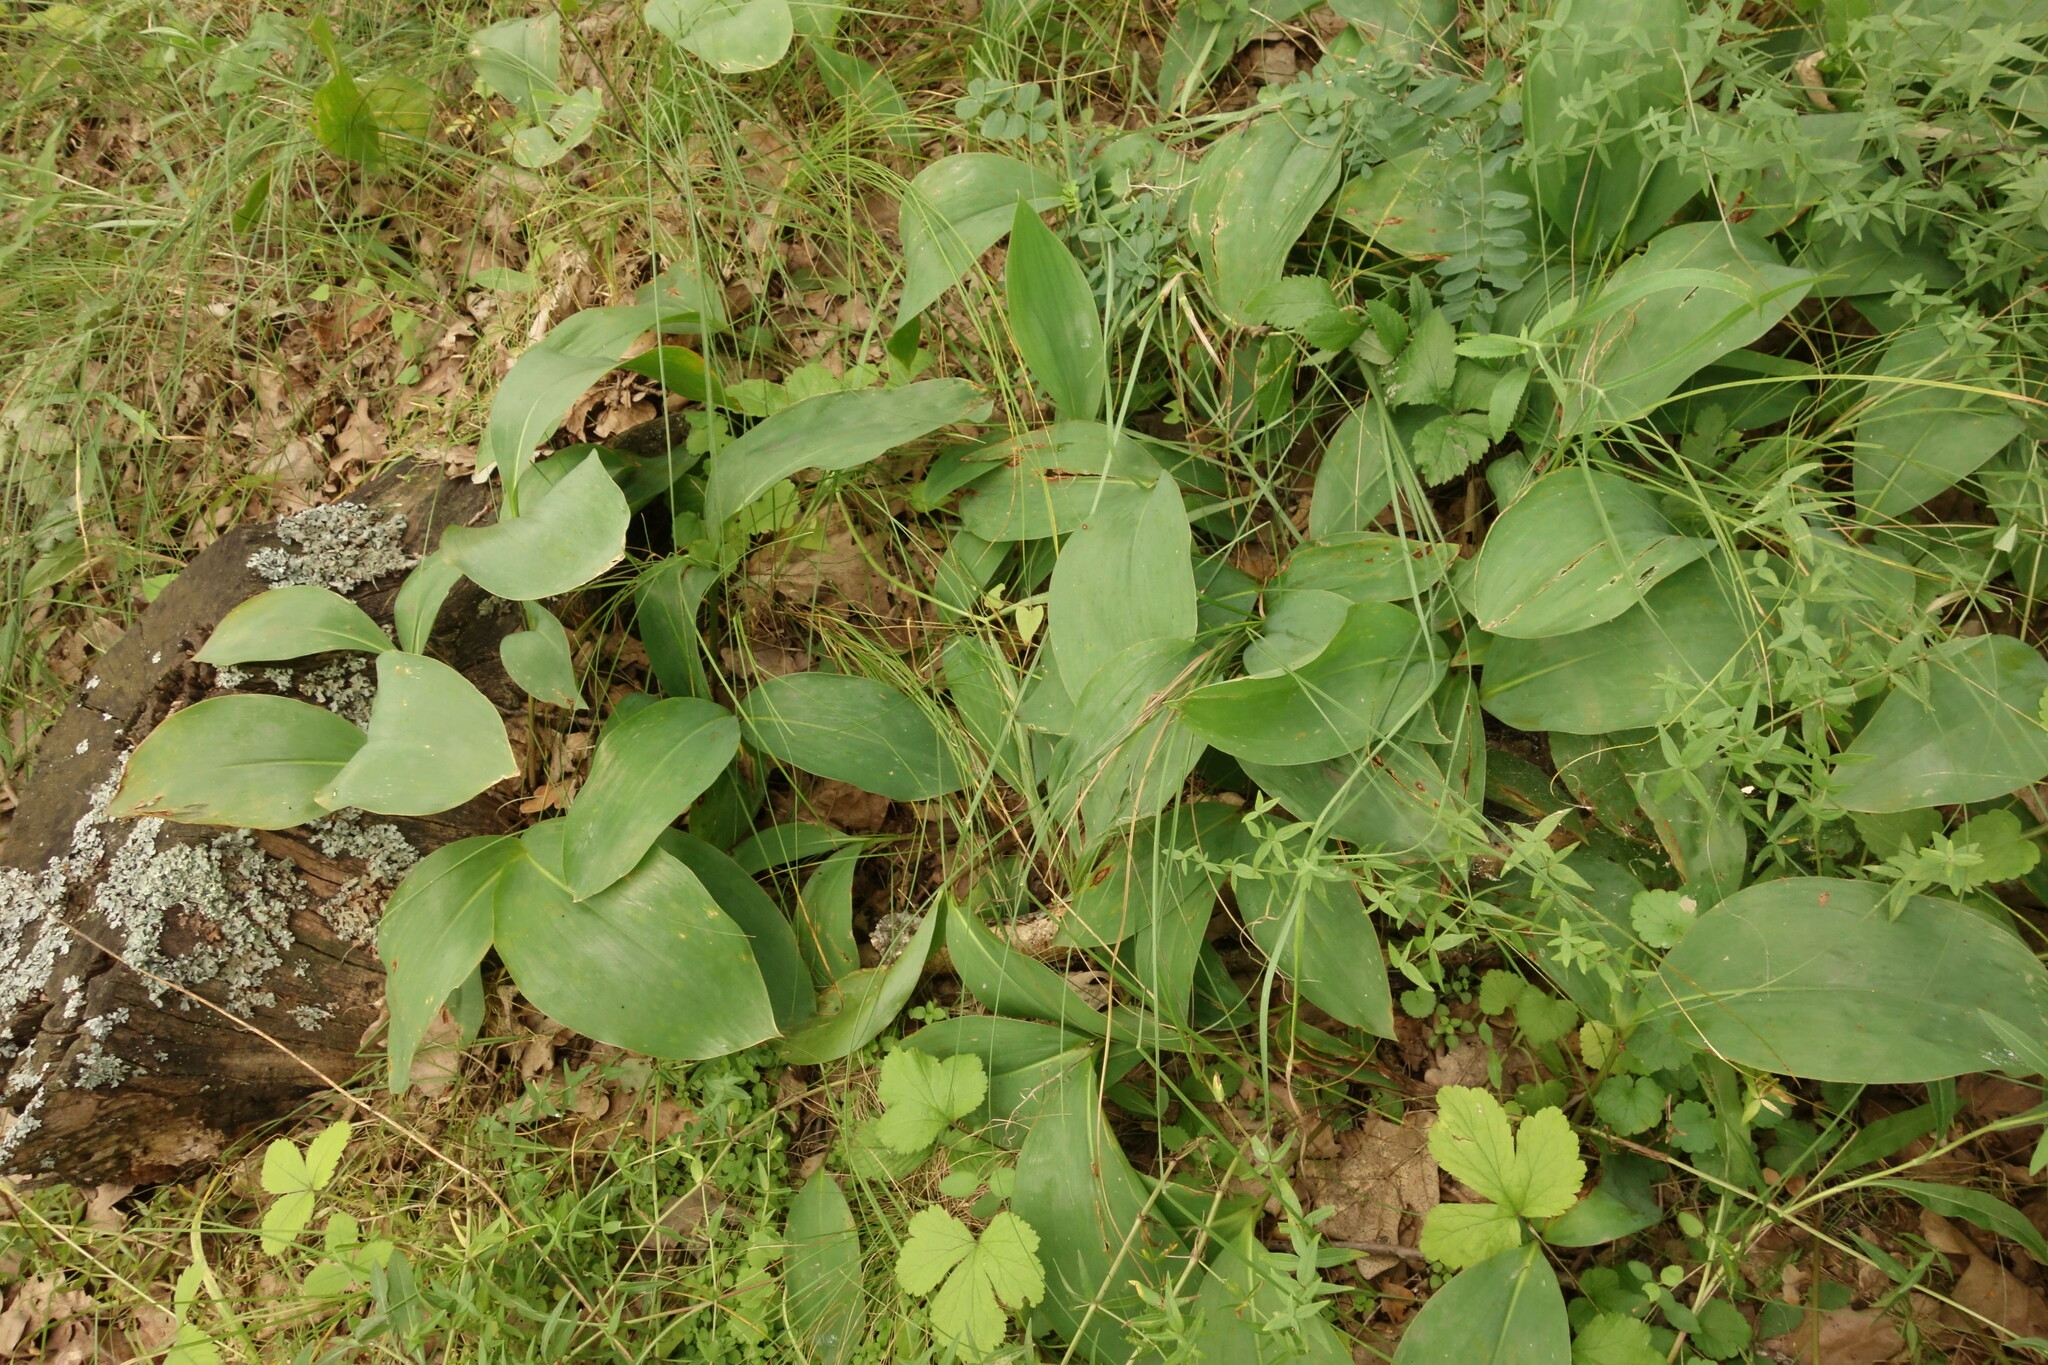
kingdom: Plantae
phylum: Tracheophyta
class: Liliopsida
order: Asparagales
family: Asparagaceae
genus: Convallaria
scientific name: Convallaria majalis
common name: Lily-of-the-valley
